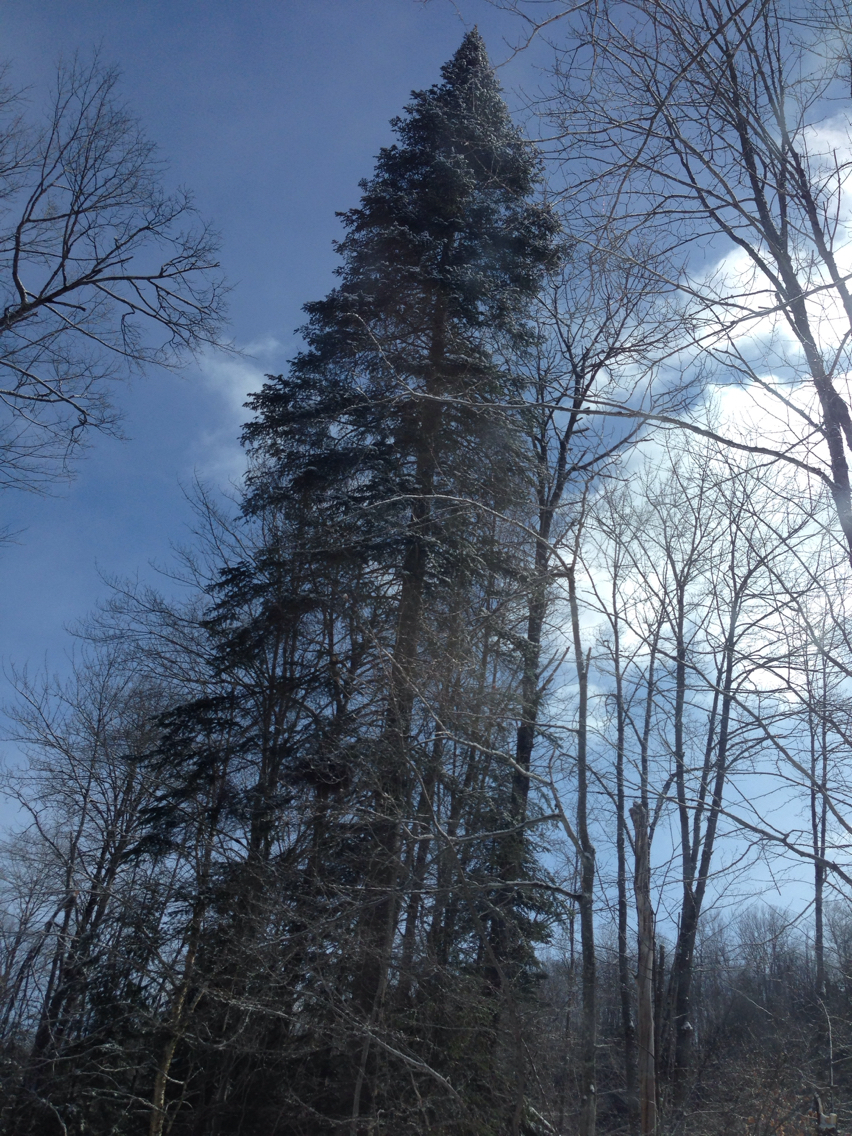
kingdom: Plantae
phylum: Tracheophyta
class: Pinopsida
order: Pinales
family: Pinaceae
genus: Abies
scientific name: Abies balsamea
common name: Balsam fir
